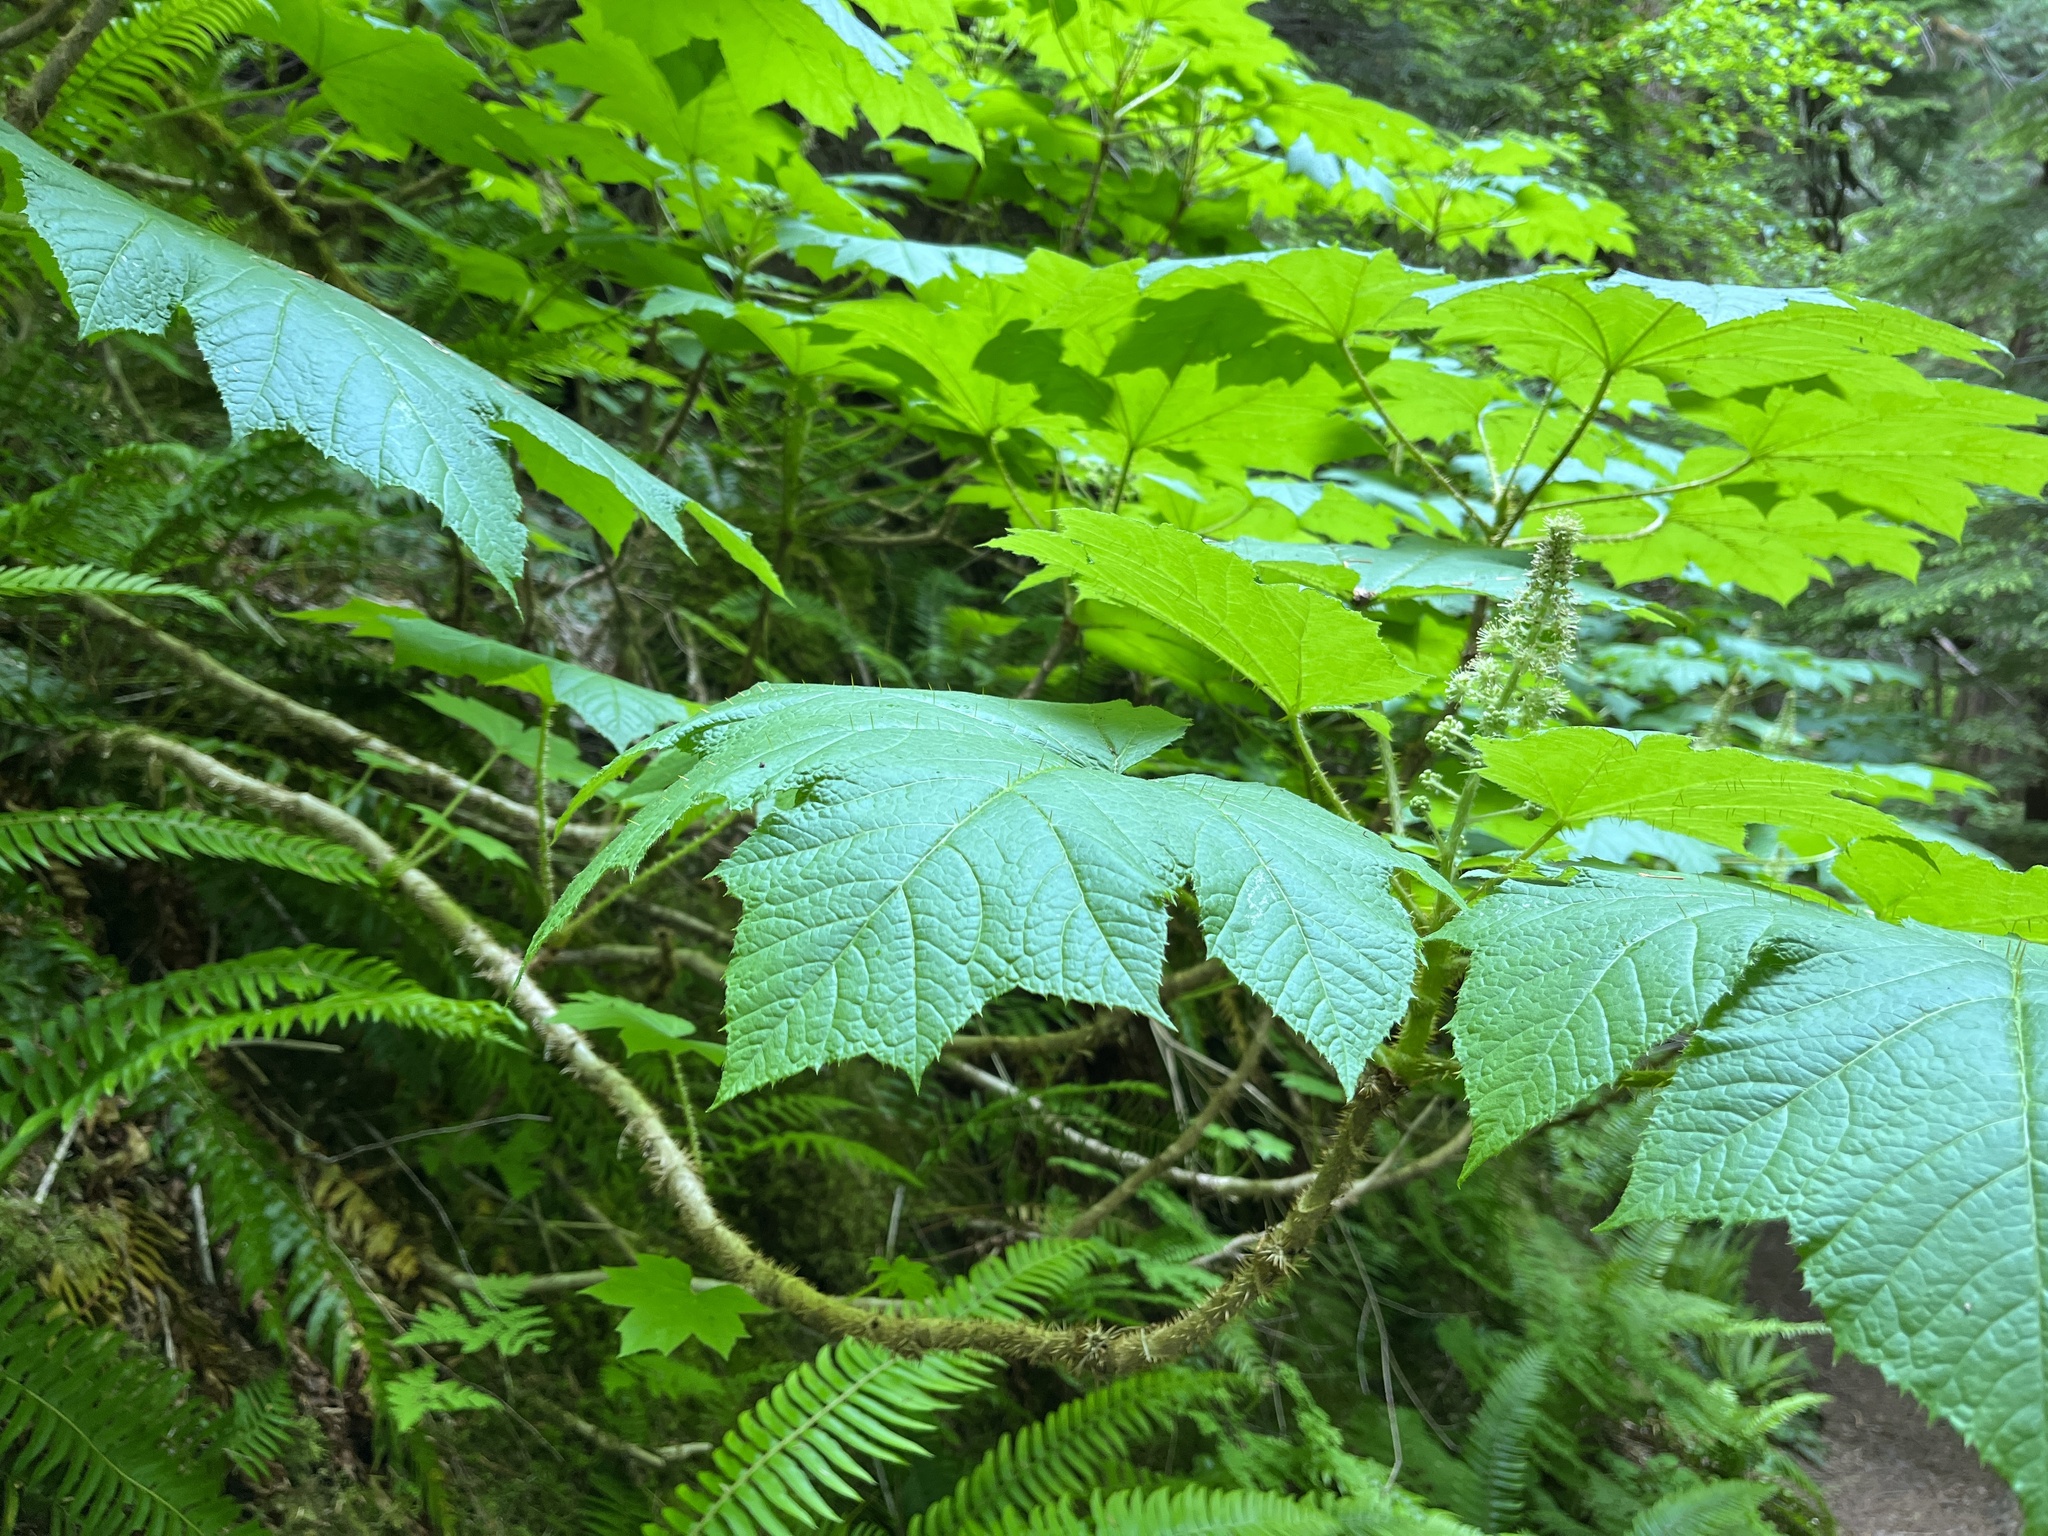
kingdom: Plantae
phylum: Tracheophyta
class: Magnoliopsida
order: Apiales
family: Araliaceae
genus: Oplopanax
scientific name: Oplopanax horridus
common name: Devil's walking-stick
